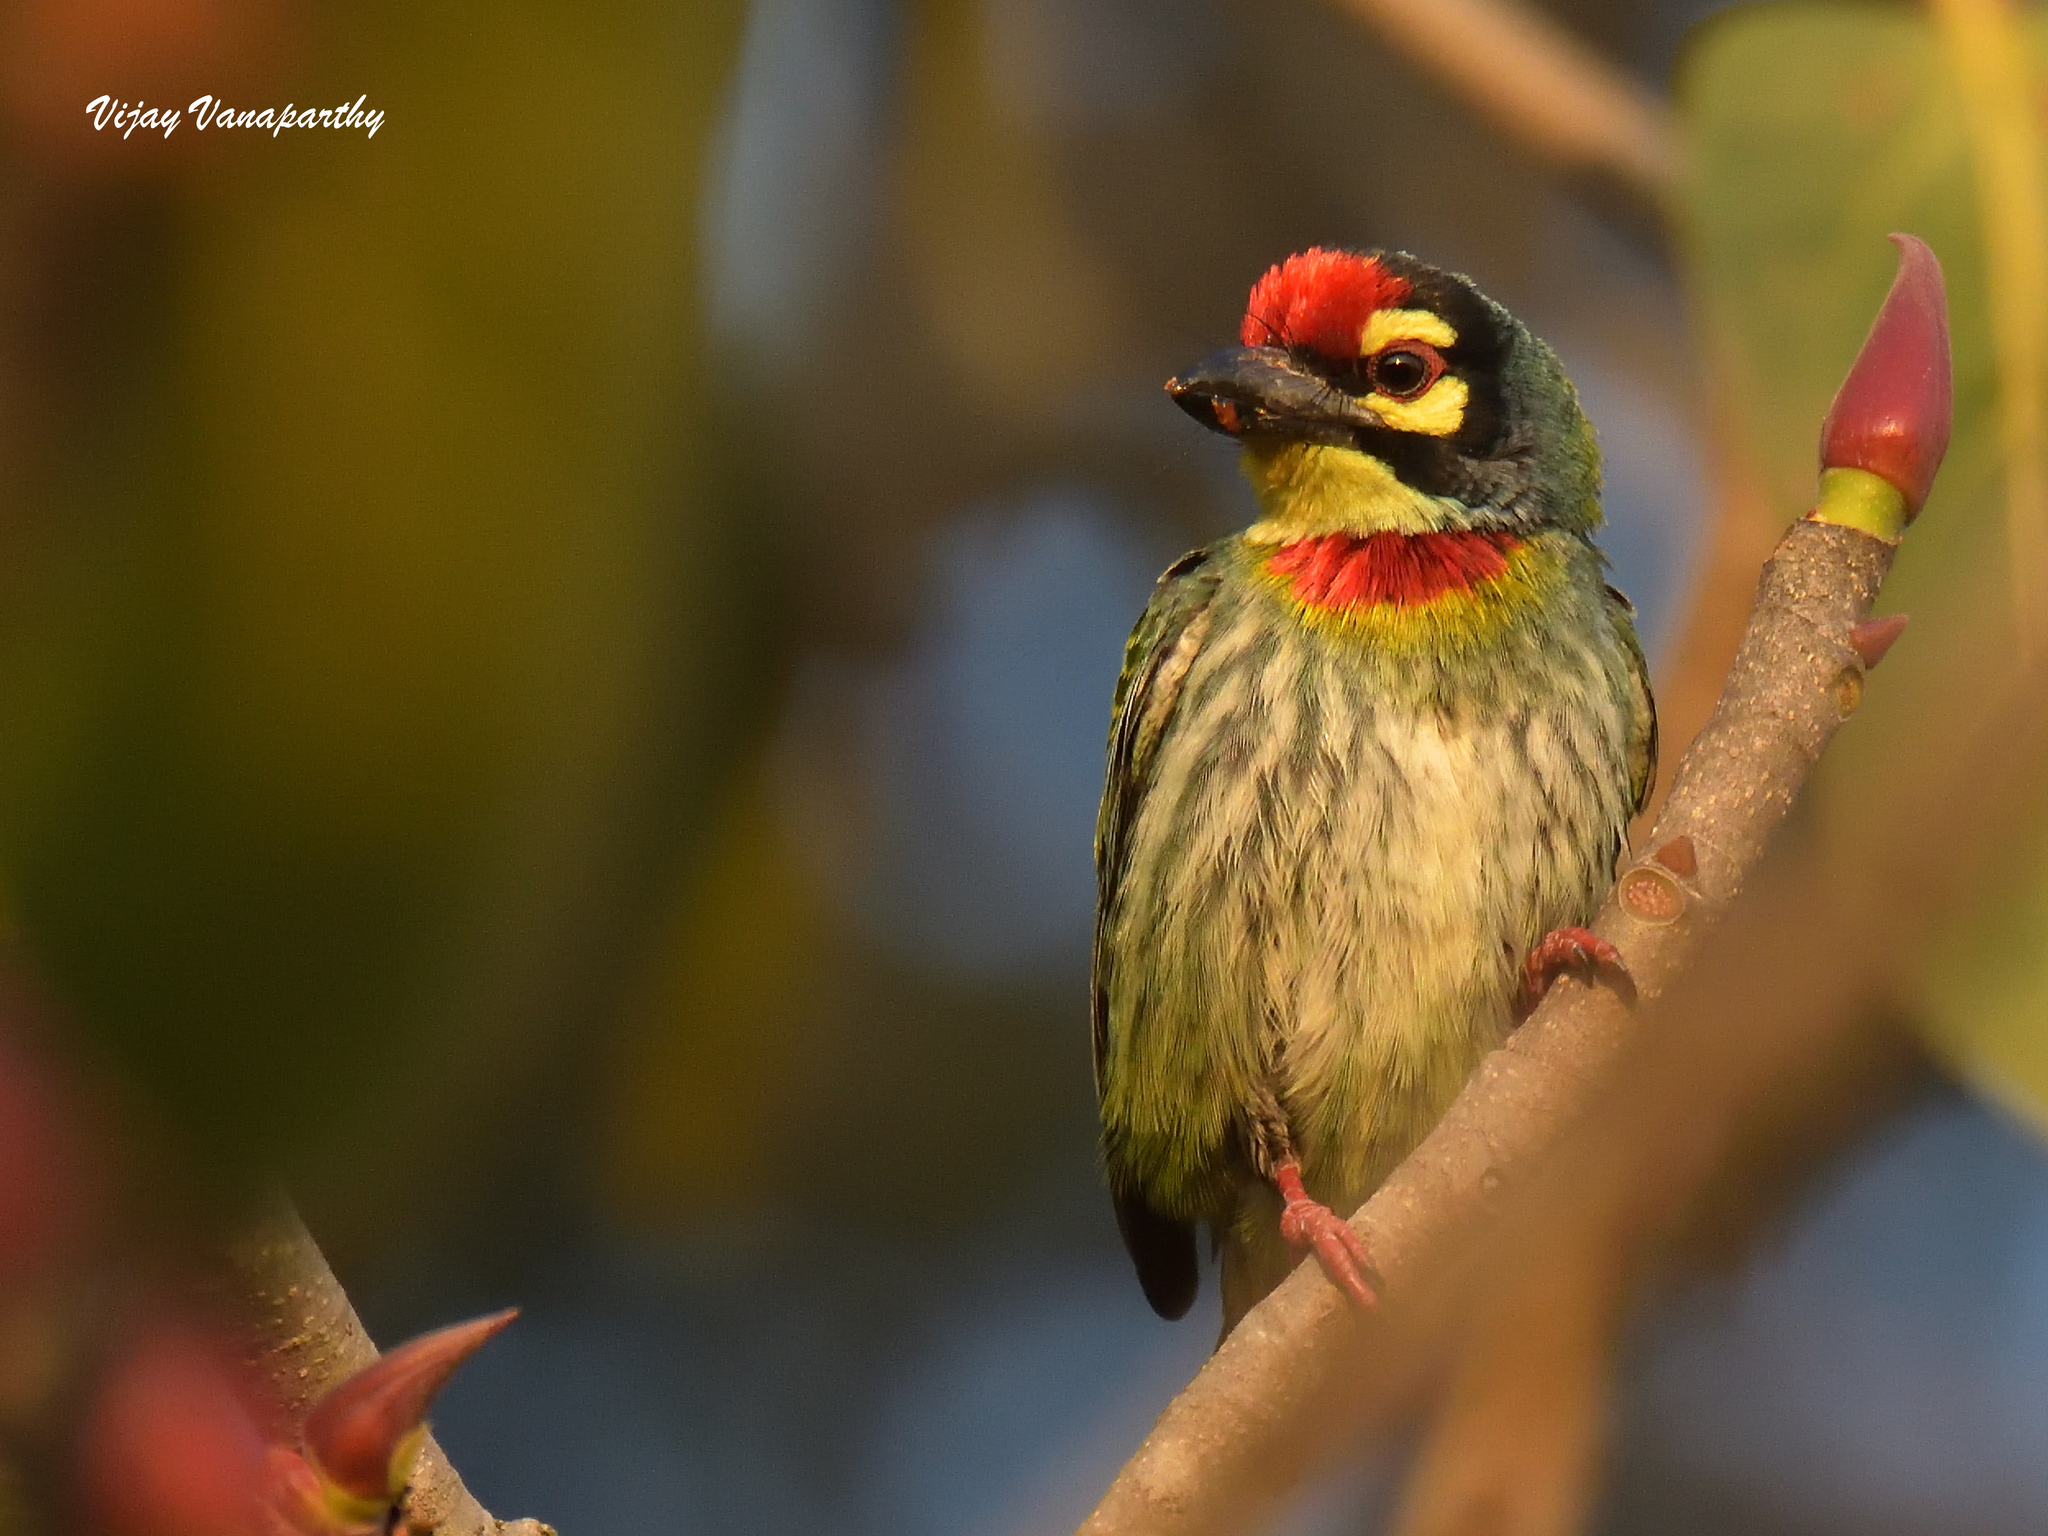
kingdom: Animalia
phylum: Chordata
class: Aves
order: Piciformes
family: Megalaimidae
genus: Psilopogon
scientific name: Psilopogon haemacephalus
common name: Coppersmith barbet
